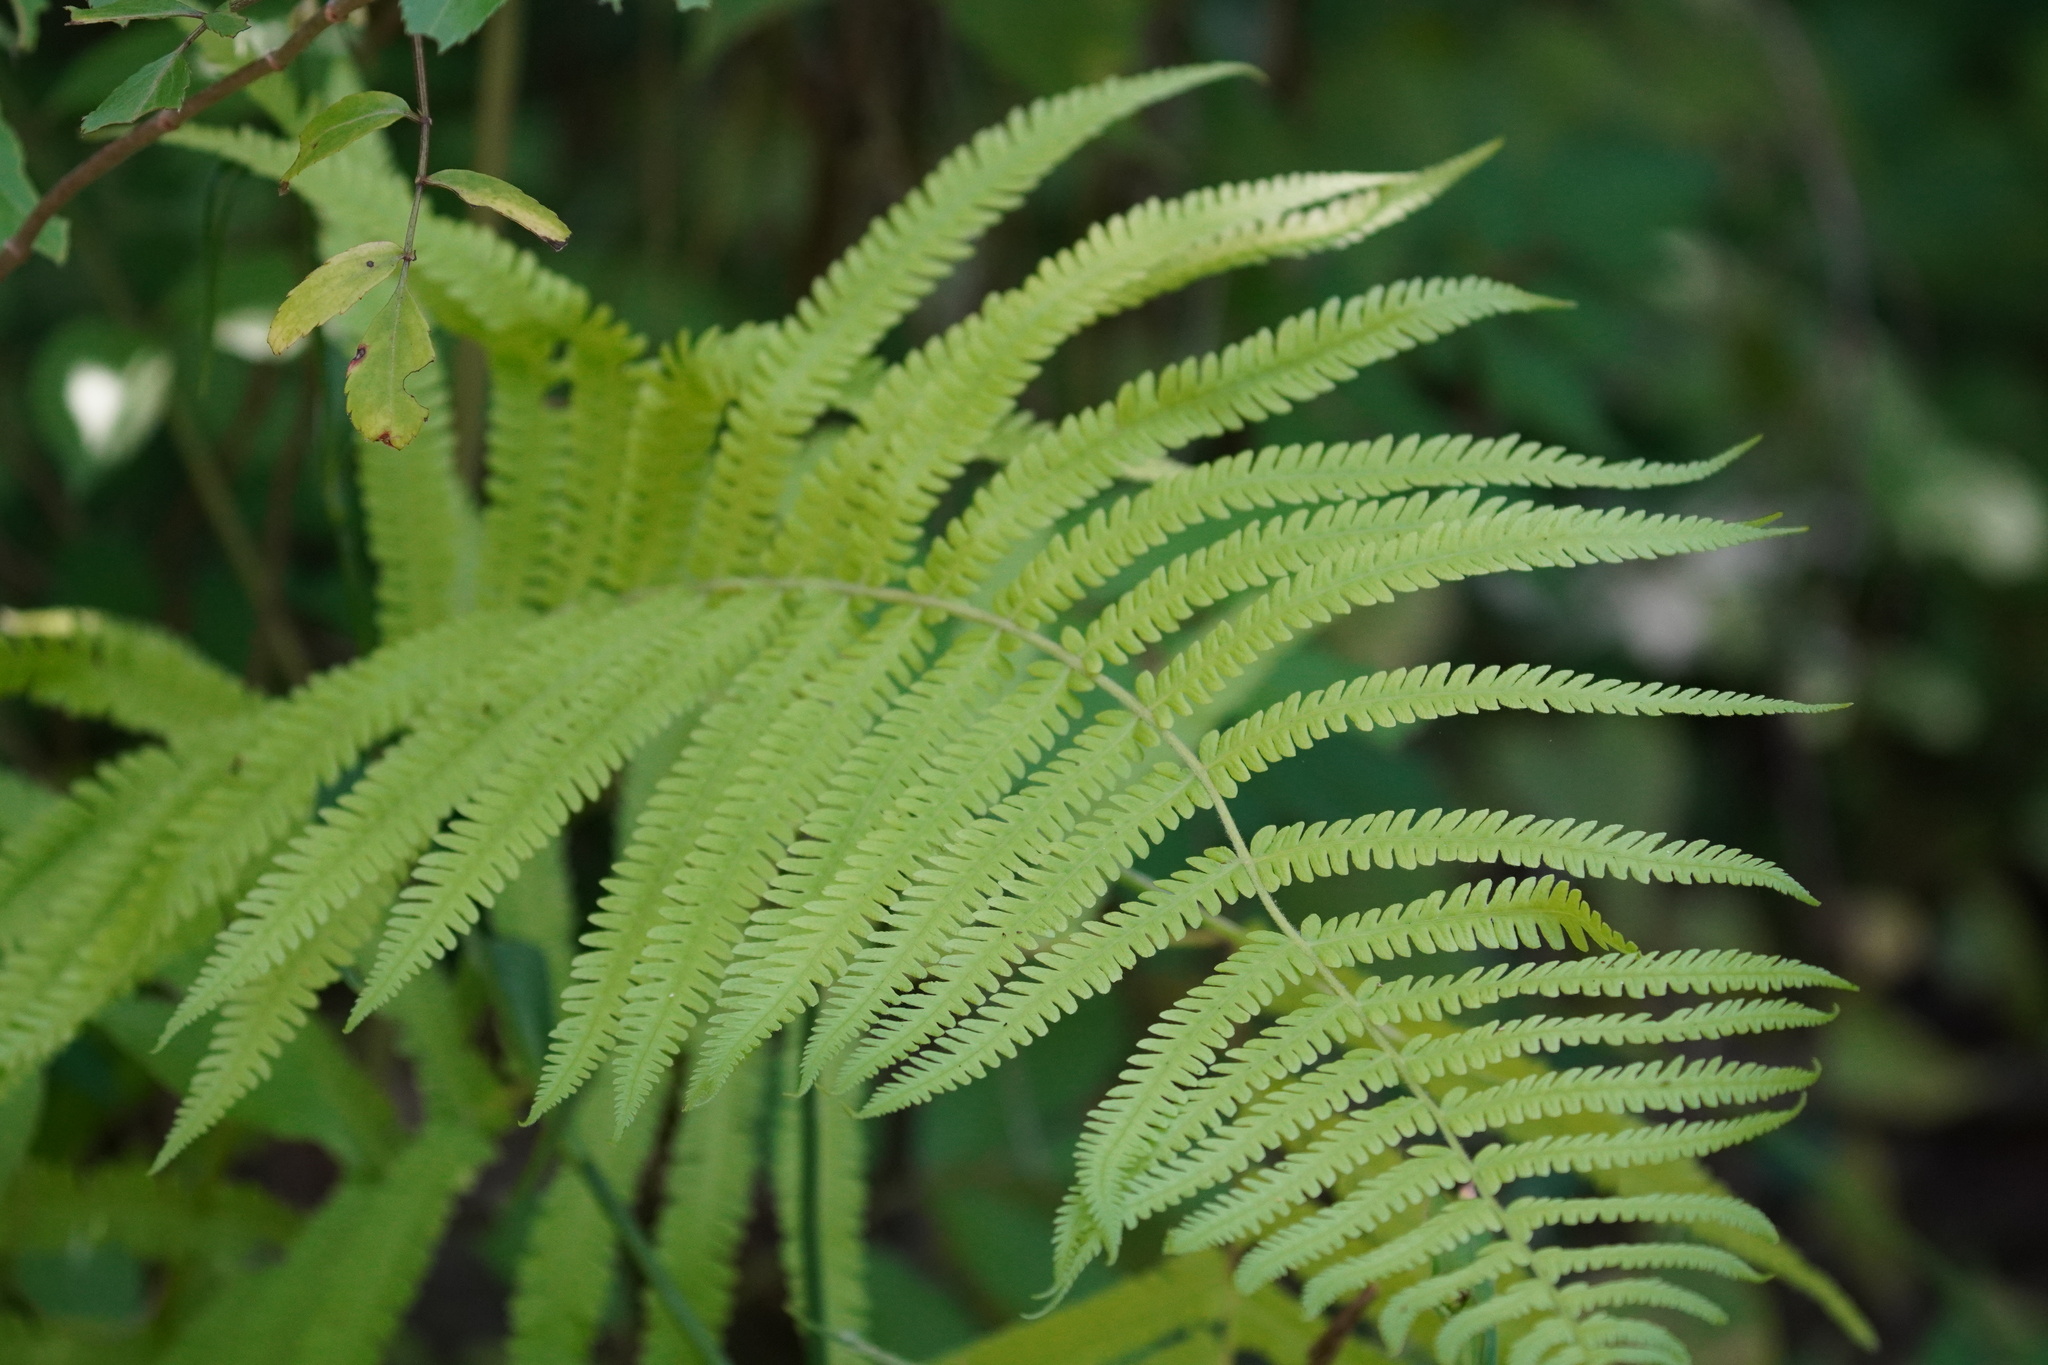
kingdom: Plantae
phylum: Tracheophyta
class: Polypodiopsida
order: Polypodiales
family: Thelypteridaceae
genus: Pelazoneuron
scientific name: Pelazoneuron kunthii
